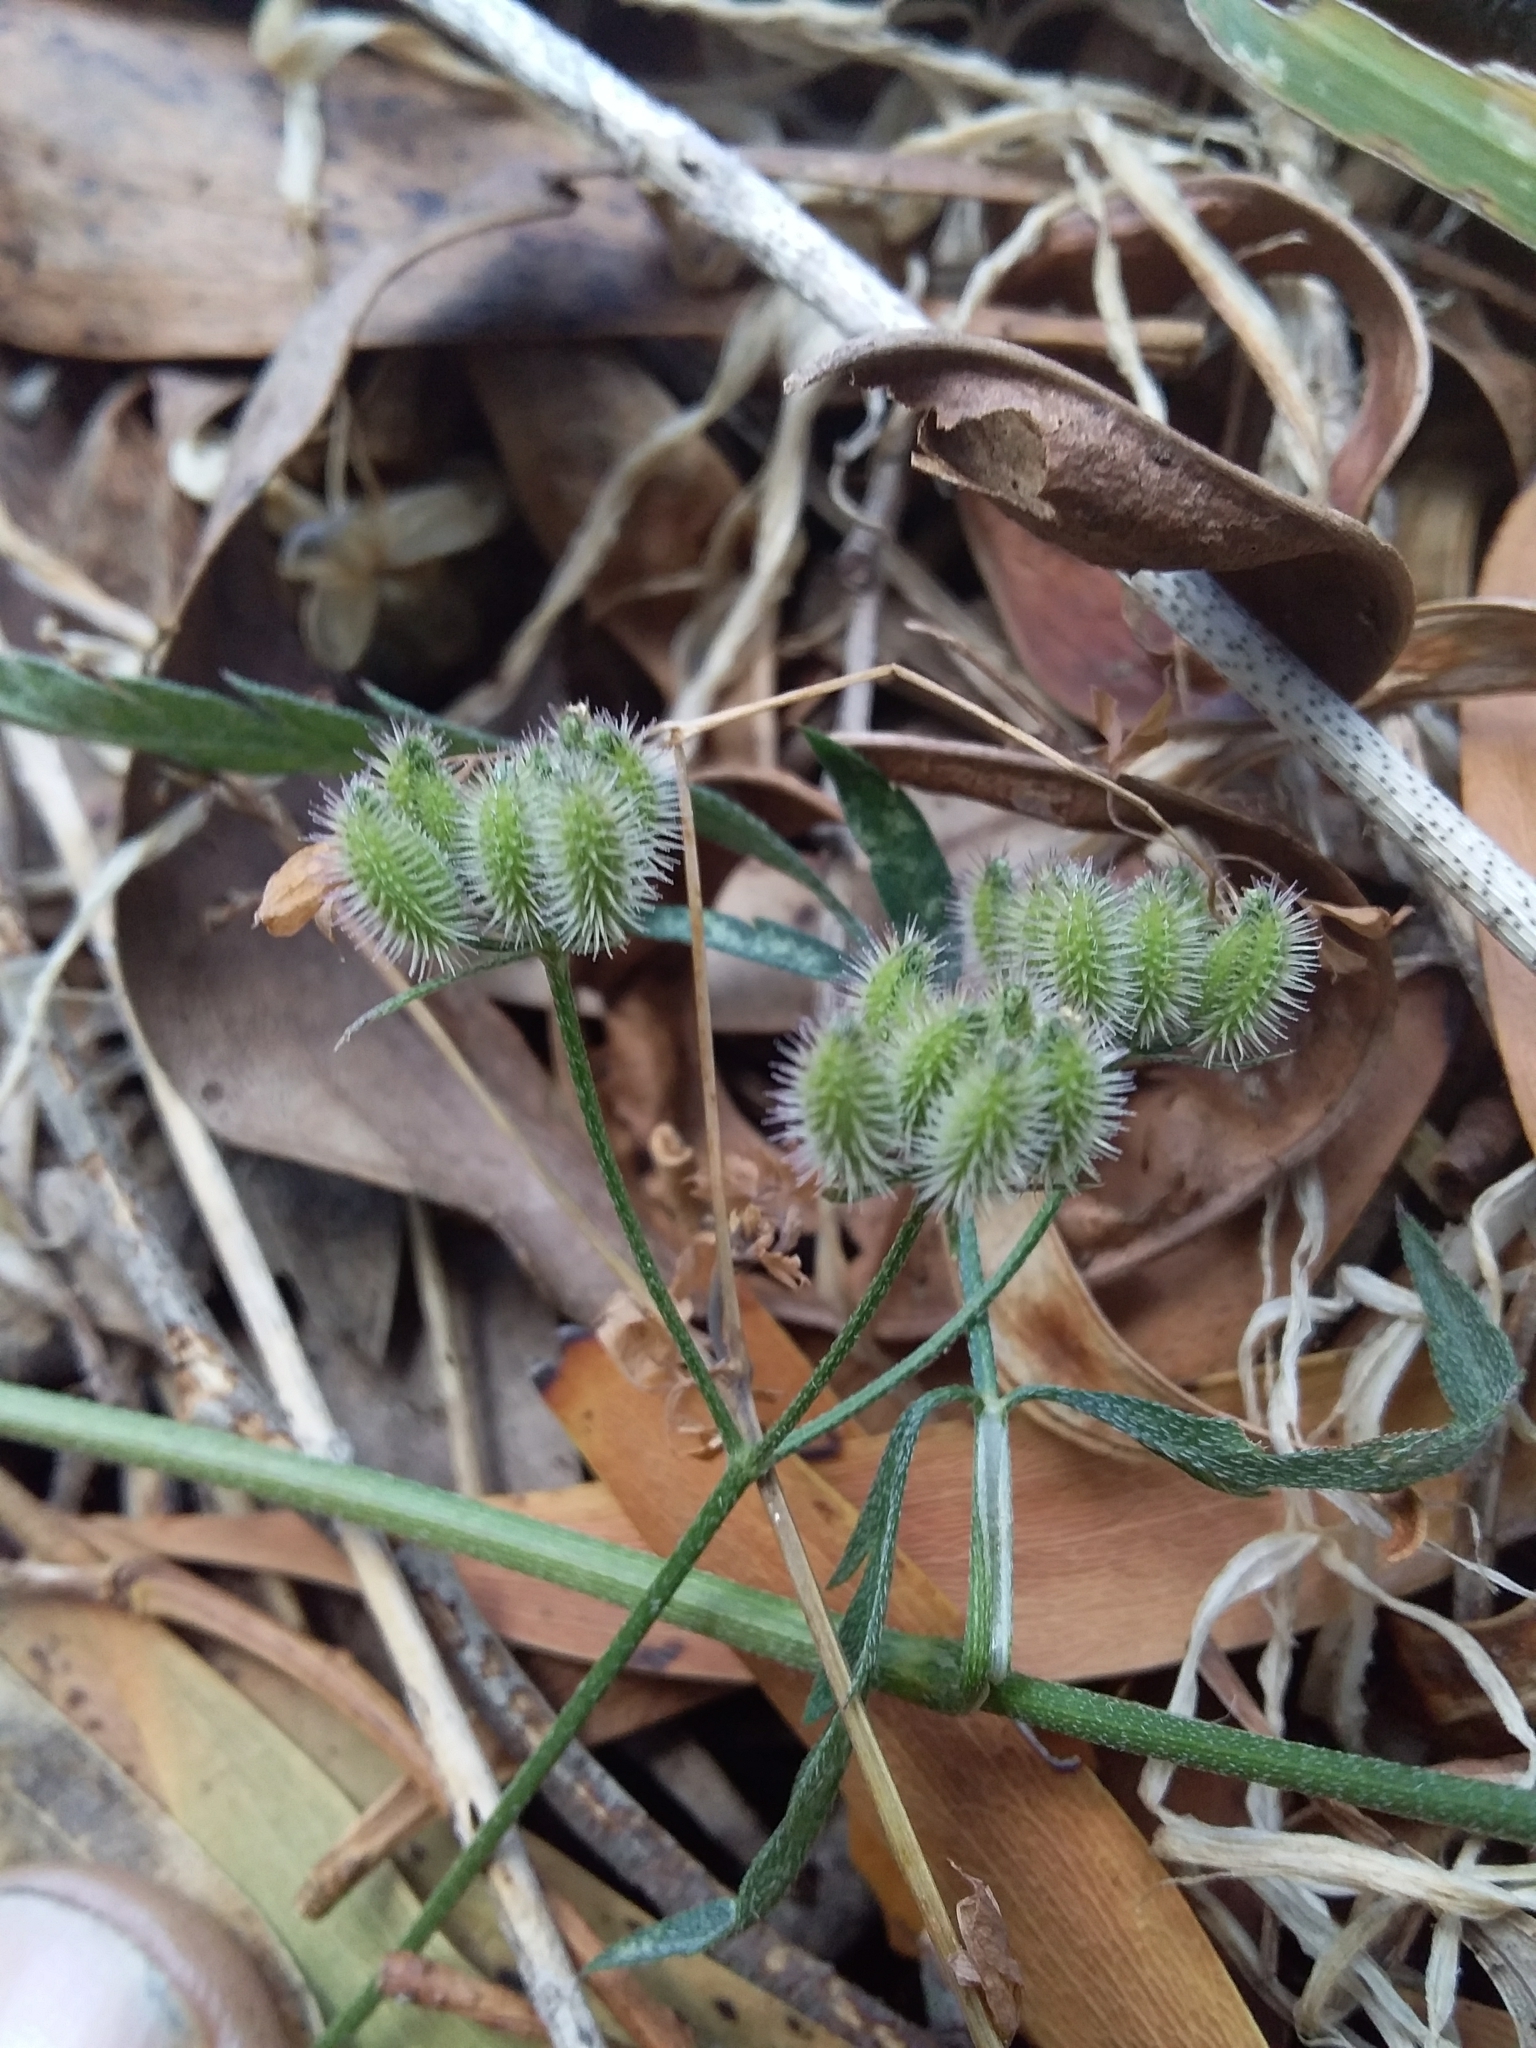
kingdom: Plantae
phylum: Tracheophyta
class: Magnoliopsida
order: Apiales
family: Apiaceae
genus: Torilis
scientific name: Torilis arvensis
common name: Spreading hedge-parsley
